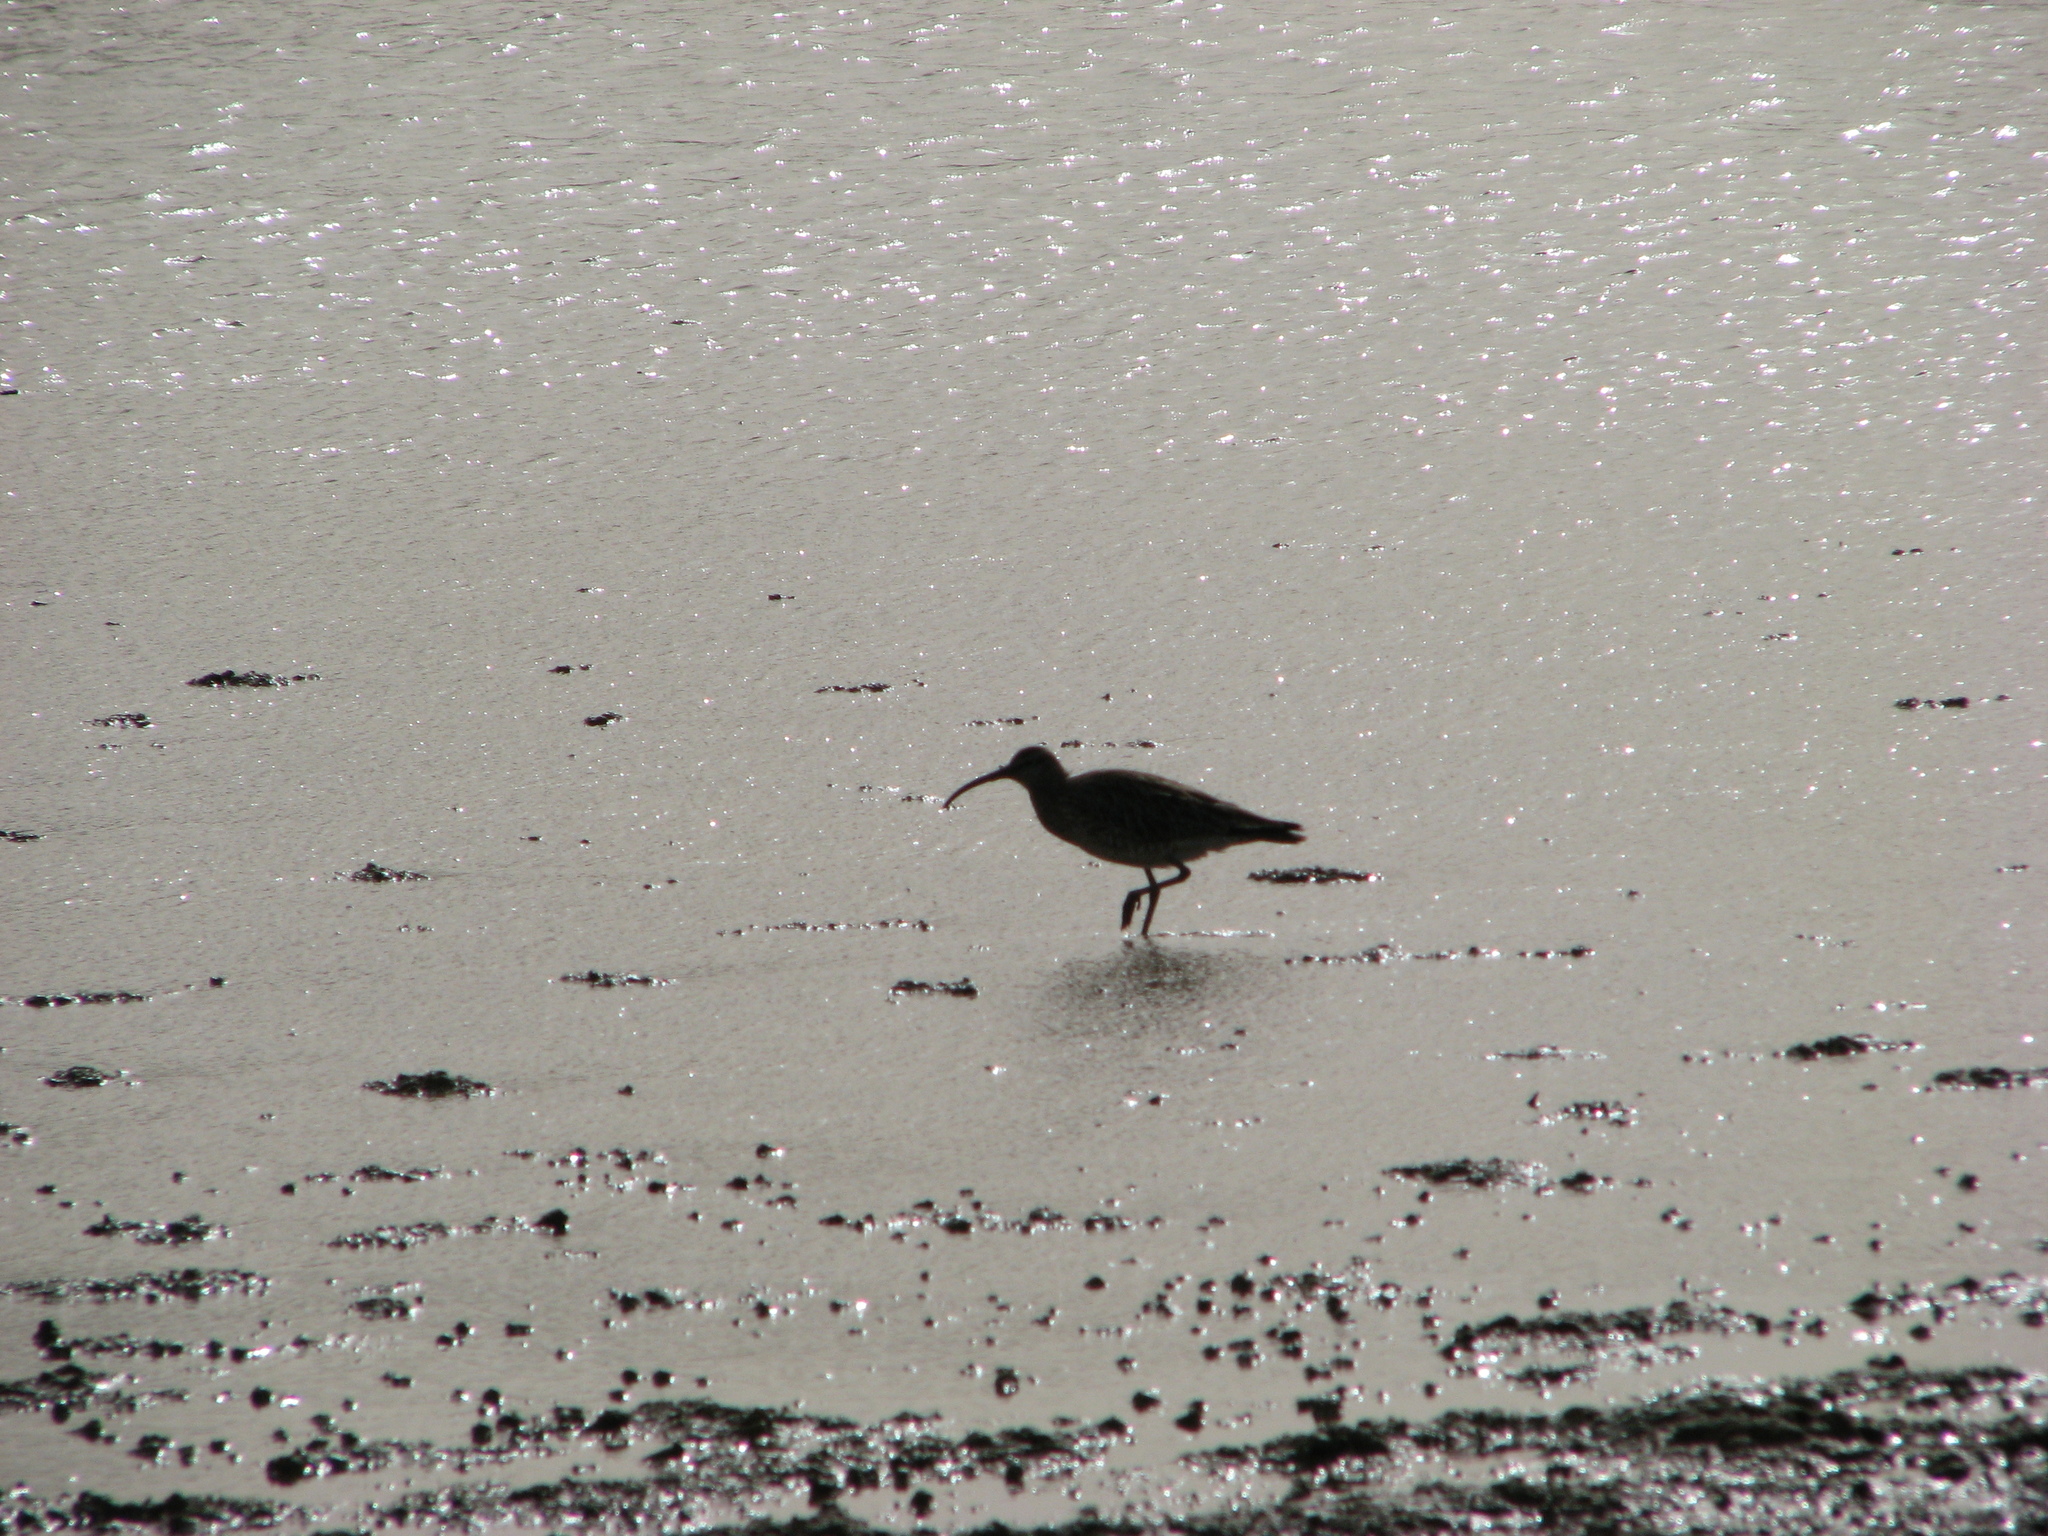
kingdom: Animalia
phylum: Chordata
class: Aves
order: Charadriiformes
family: Scolopacidae
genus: Numenius
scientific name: Numenius phaeopus
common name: Whimbrel
